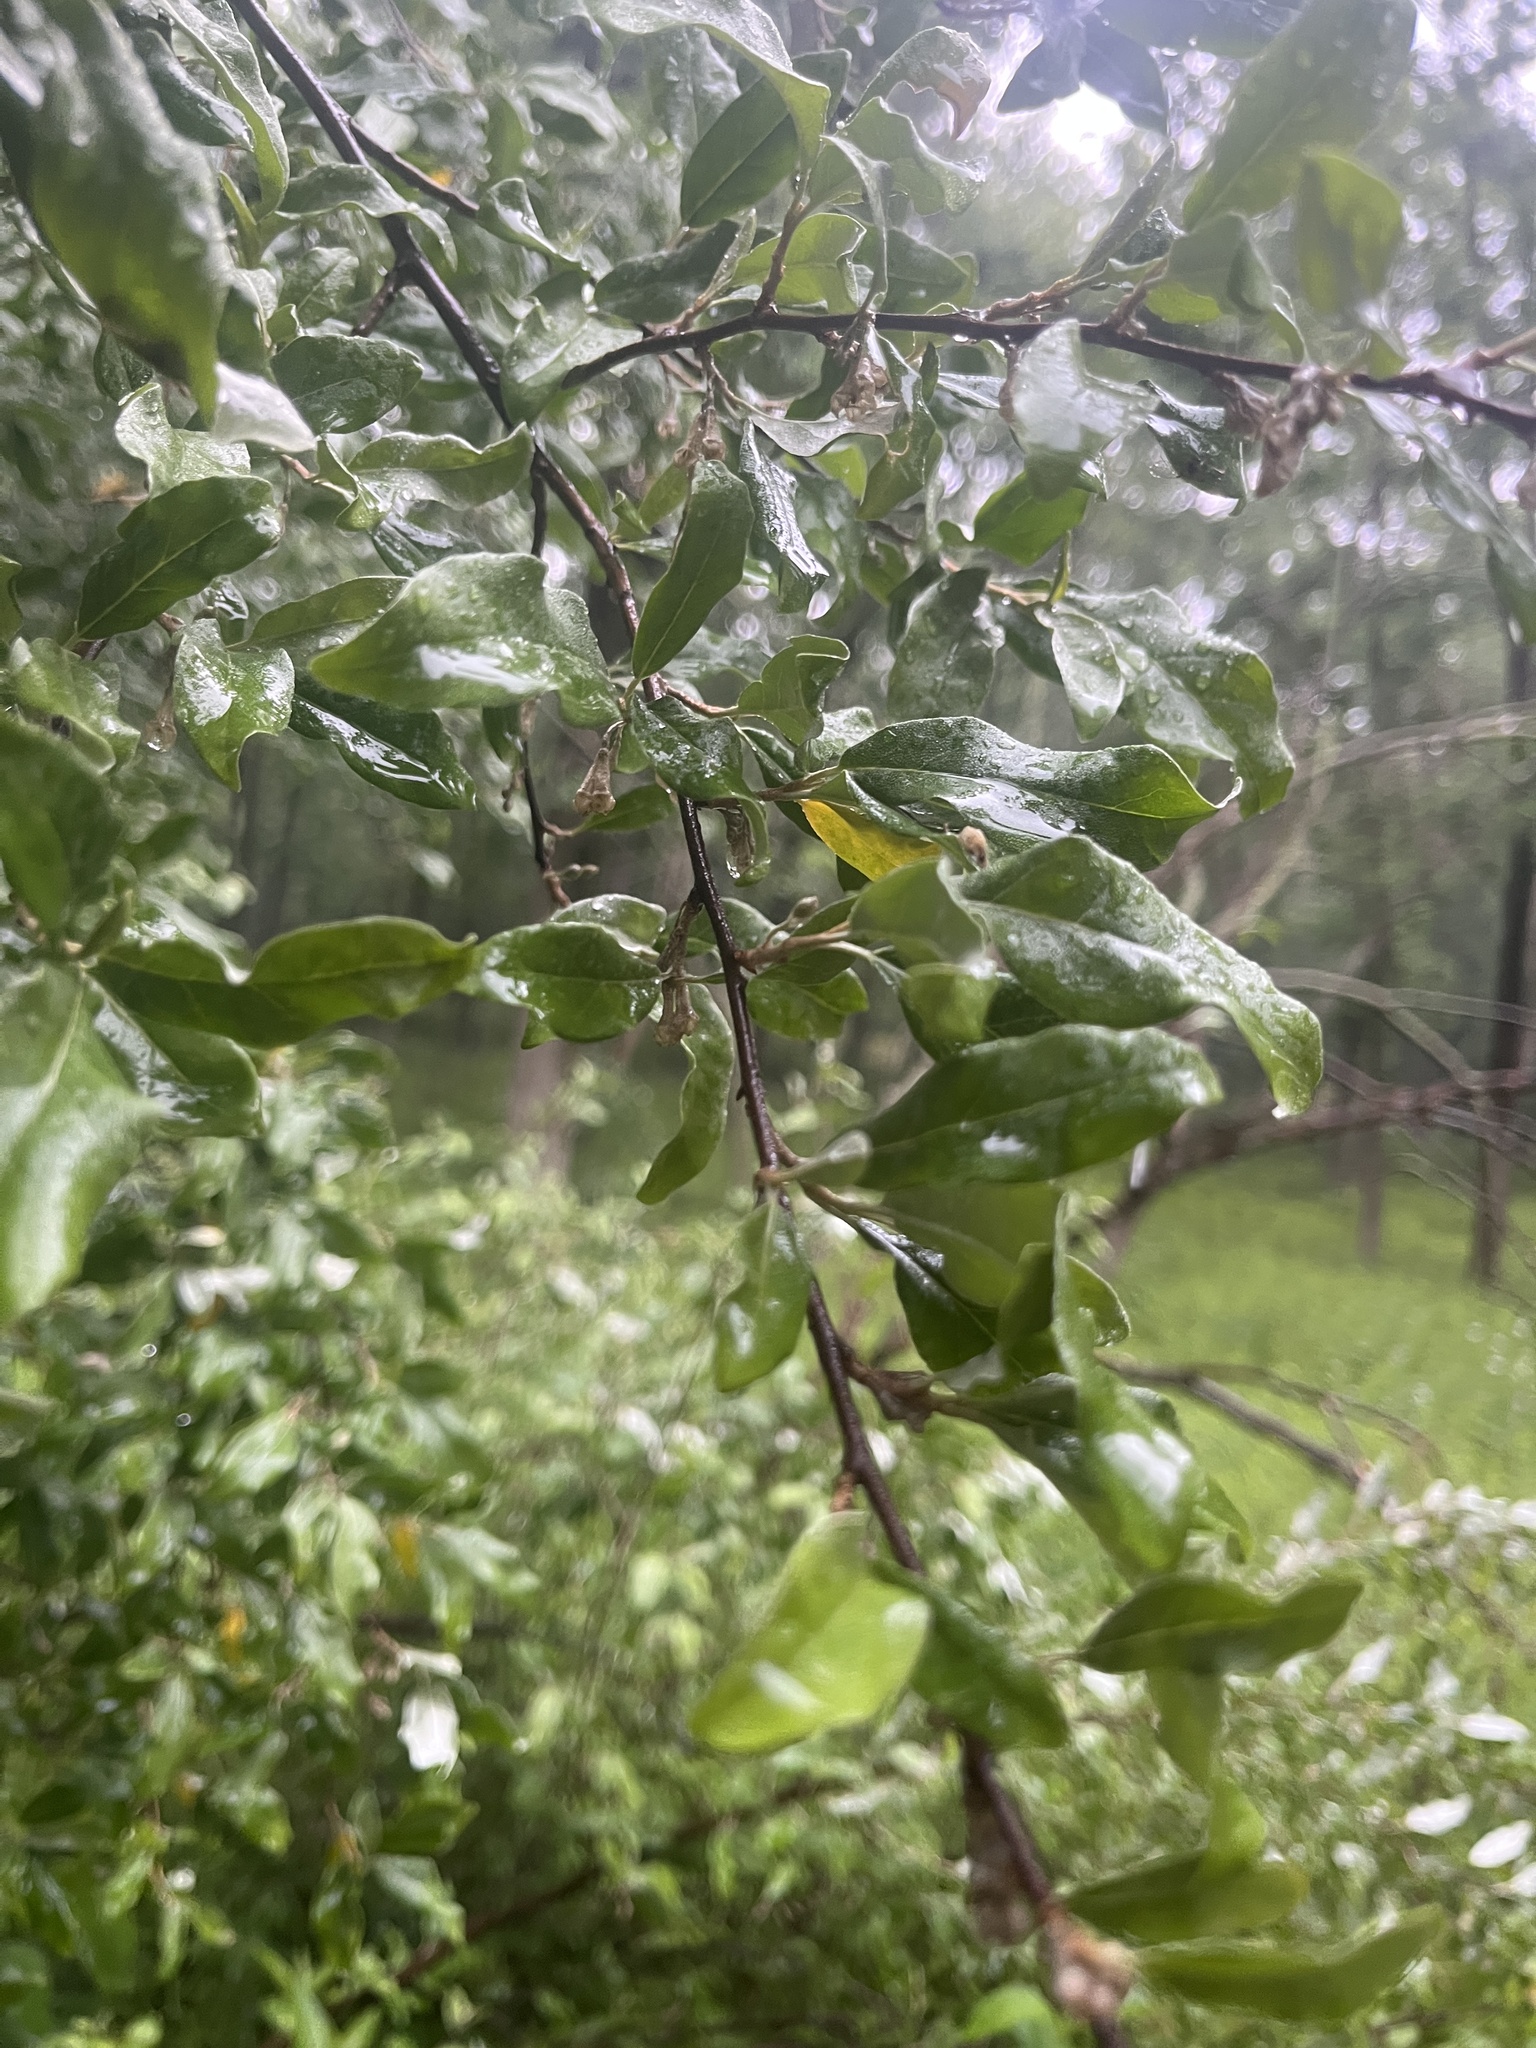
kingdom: Plantae
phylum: Tracheophyta
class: Magnoliopsida
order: Rosales
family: Elaeagnaceae
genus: Elaeagnus
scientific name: Elaeagnus umbellata
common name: Autumn olive
